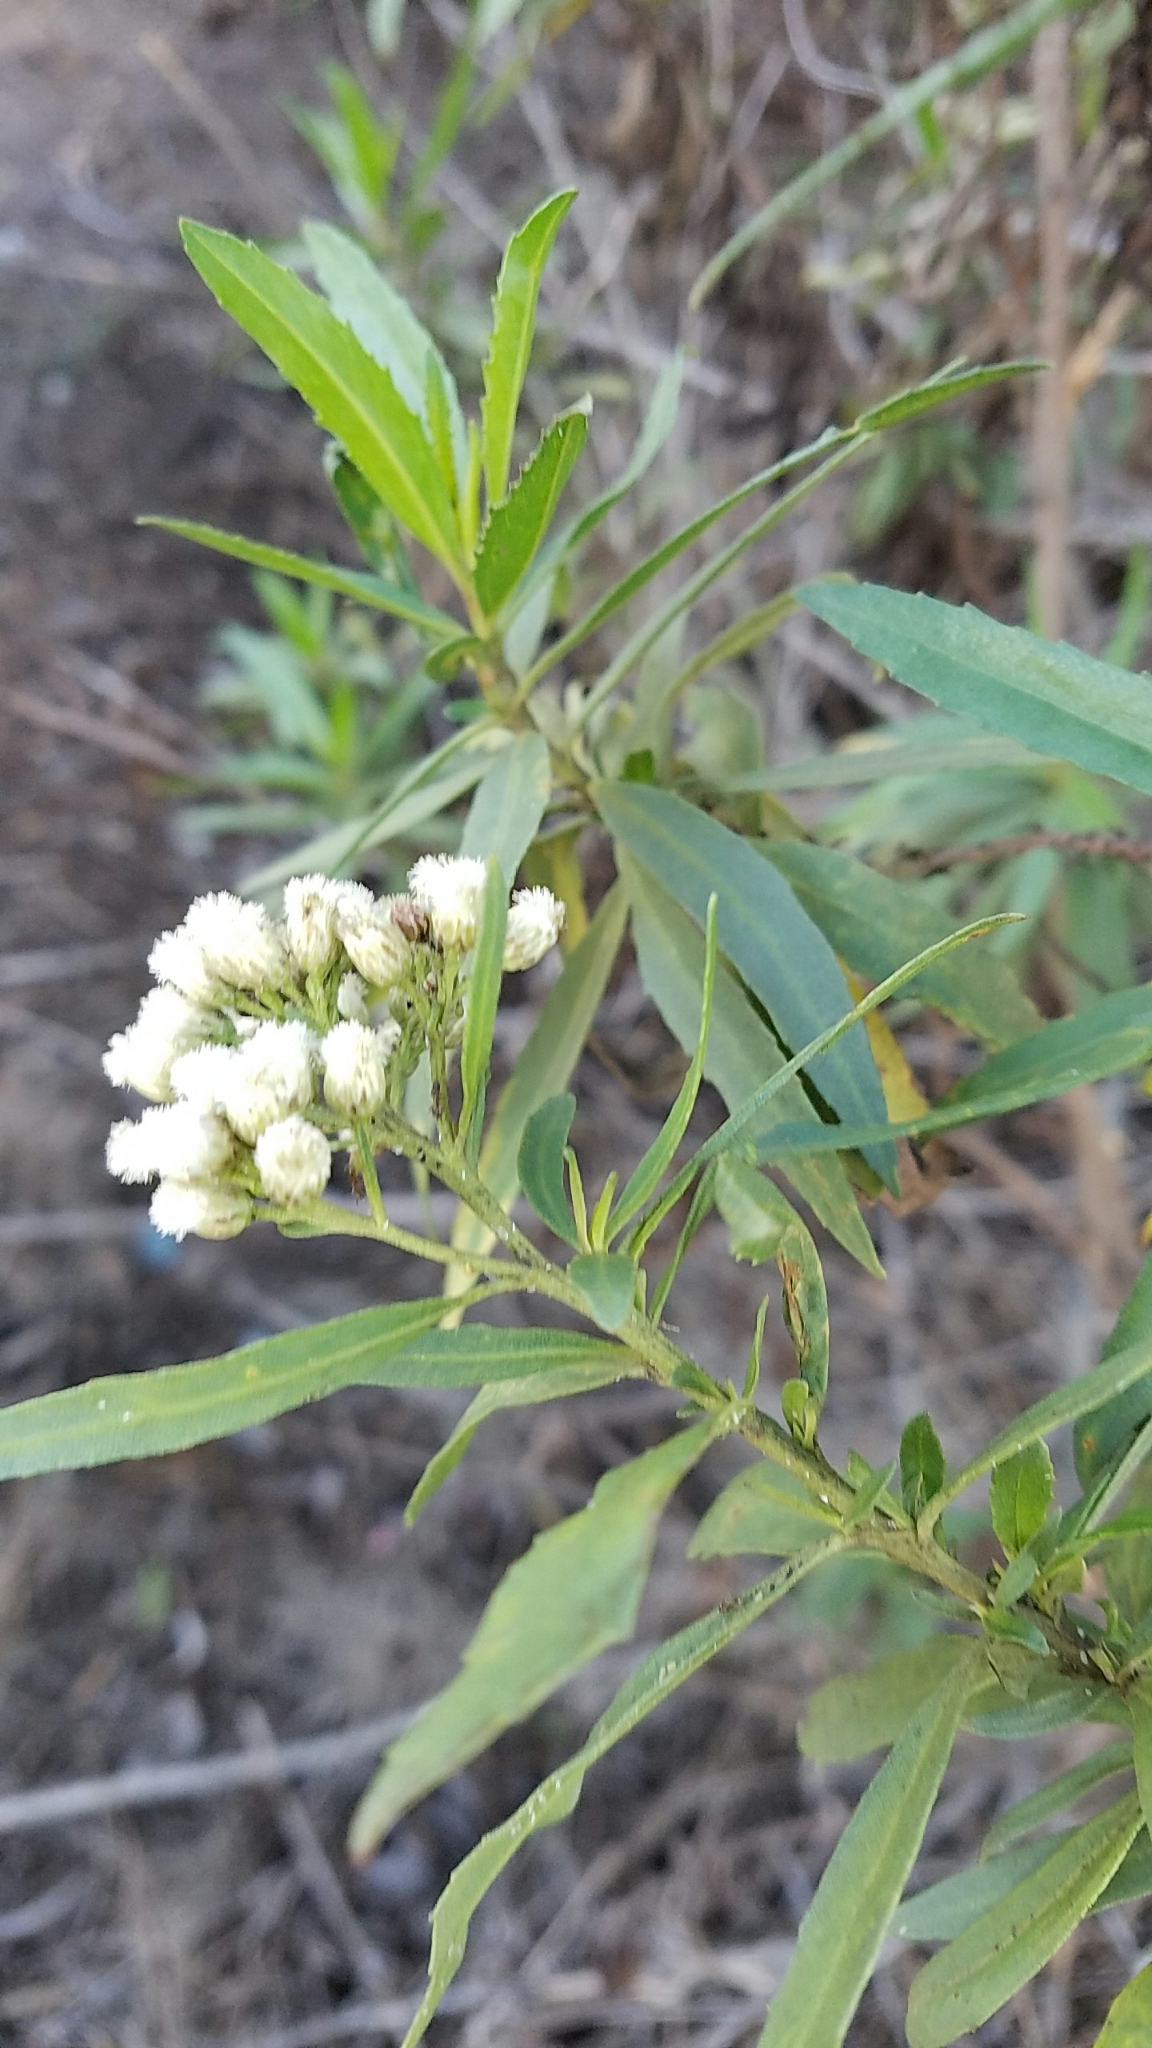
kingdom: Plantae
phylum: Tracheophyta
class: Magnoliopsida
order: Asterales
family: Asteraceae
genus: Baccharis
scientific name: Baccharis salicifolia
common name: Sticky baccharis
